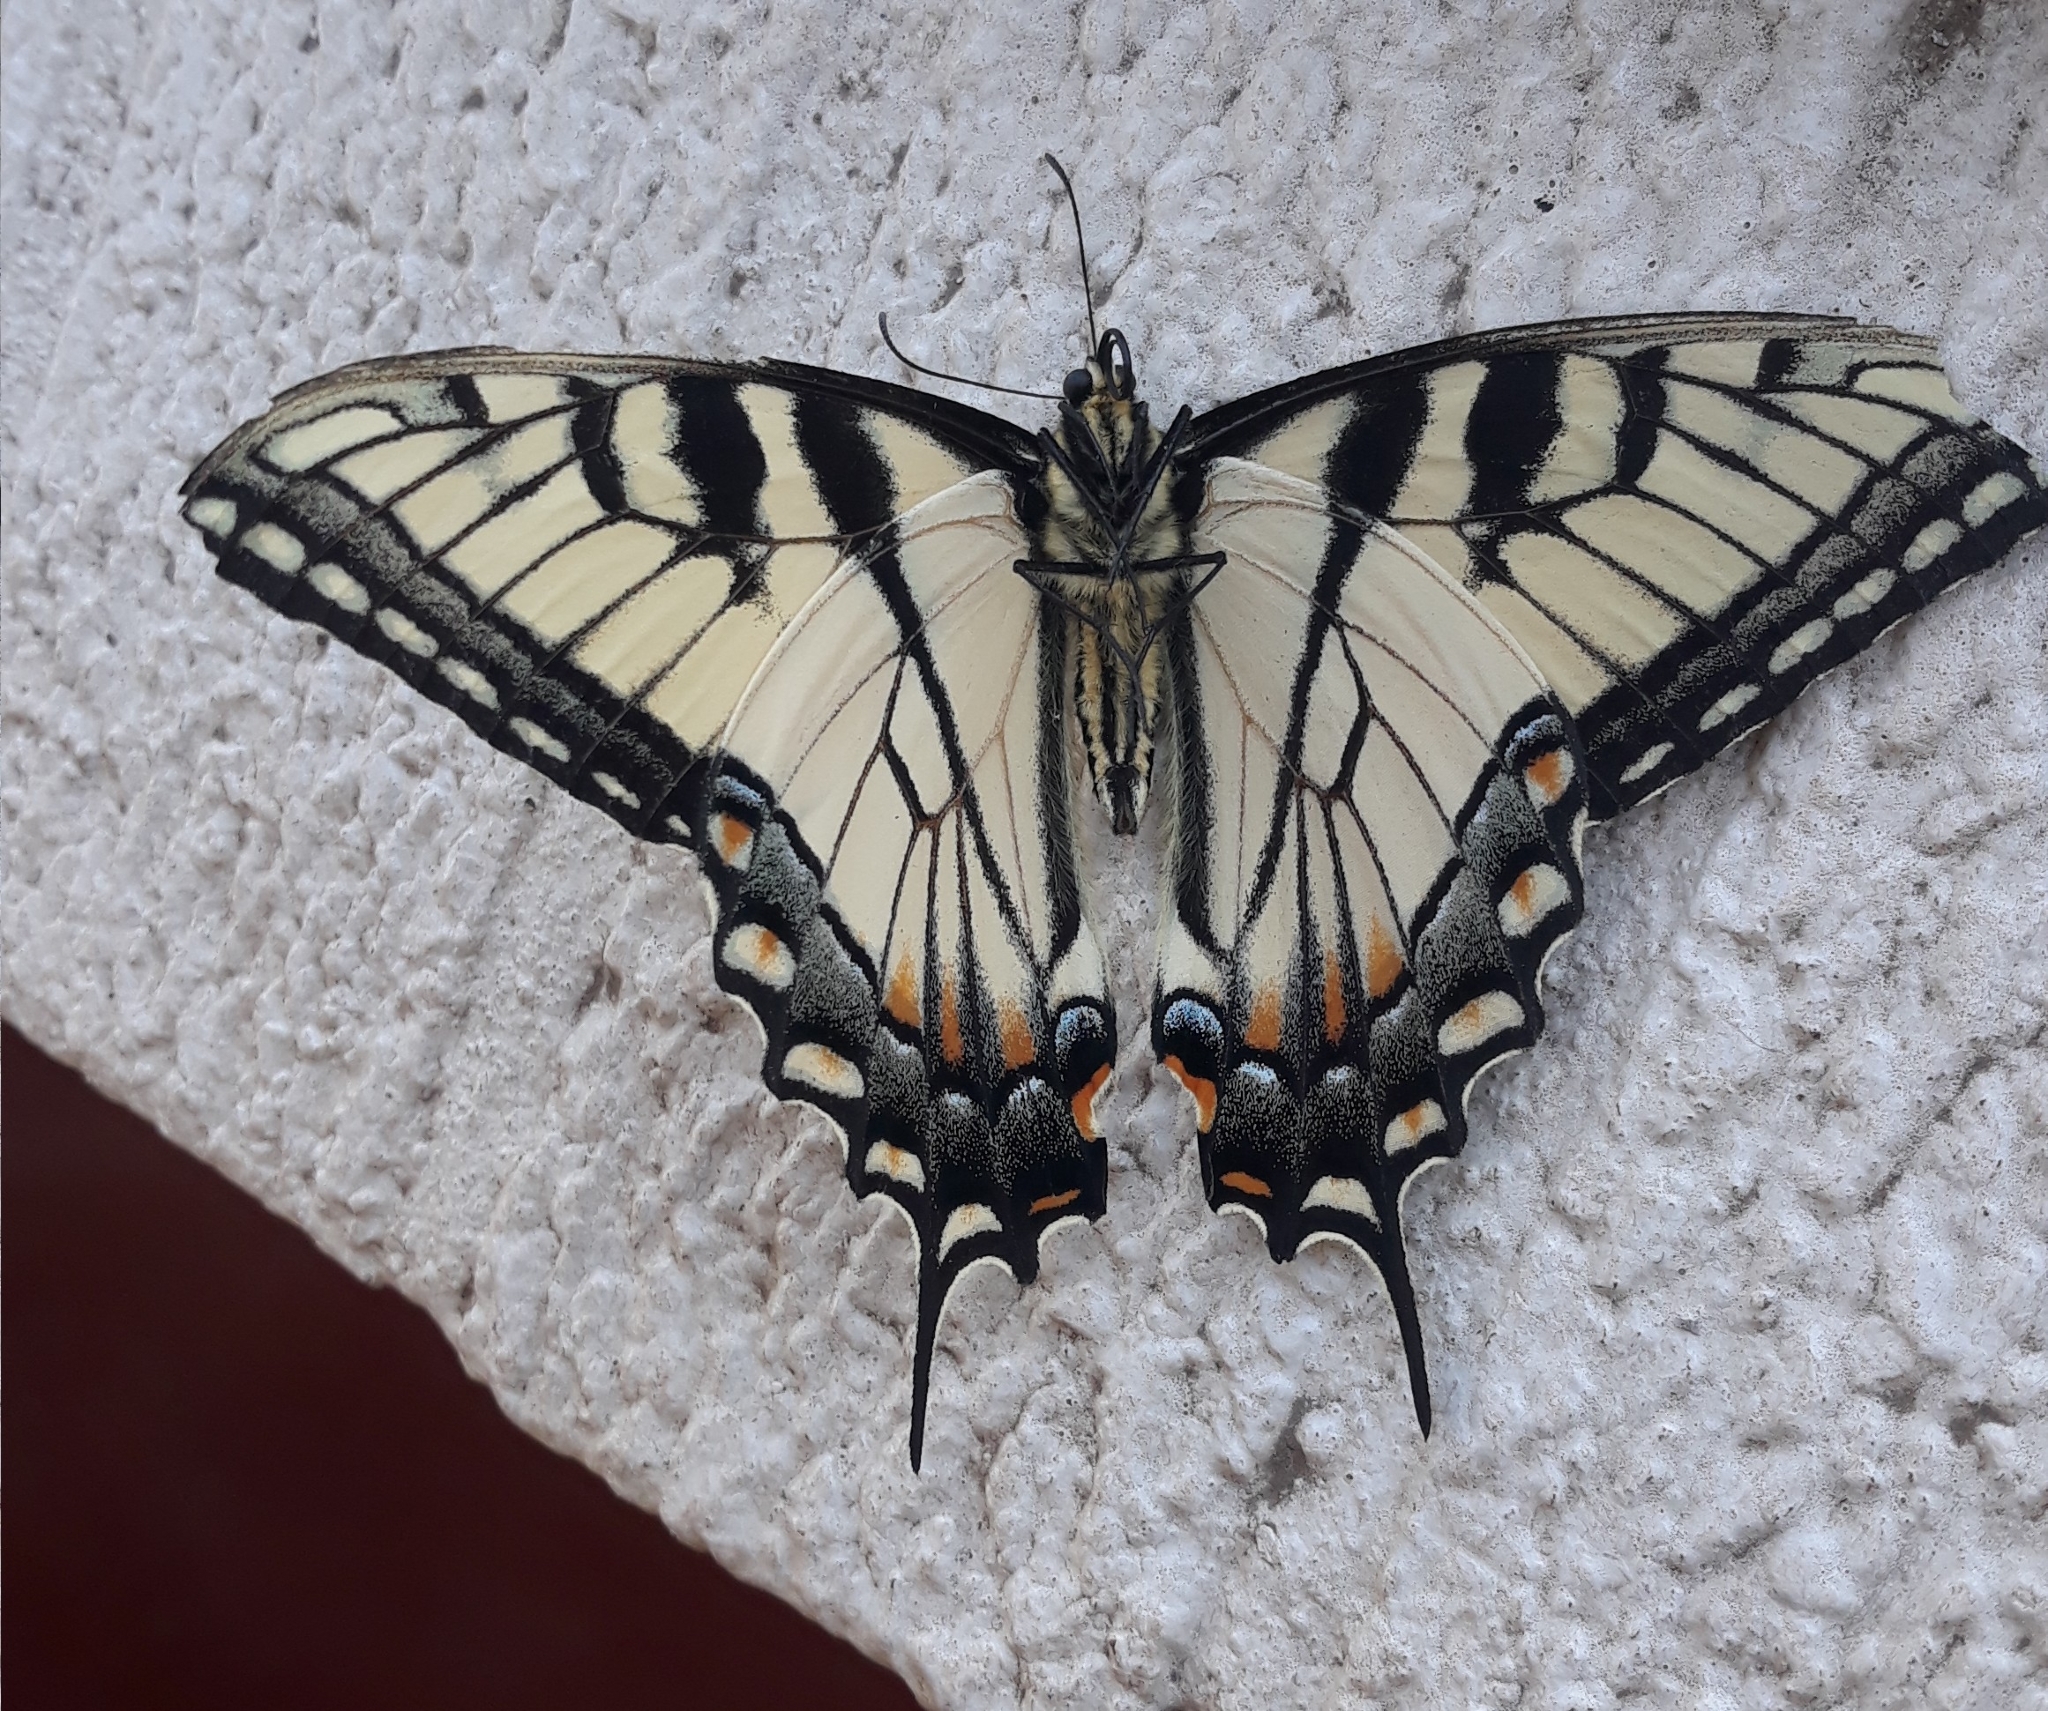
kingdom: Animalia
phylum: Arthropoda
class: Insecta
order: Lepidoptera
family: Papilionidae
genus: Papilio
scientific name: Papilio glaucus
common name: Tiger swallowtail
